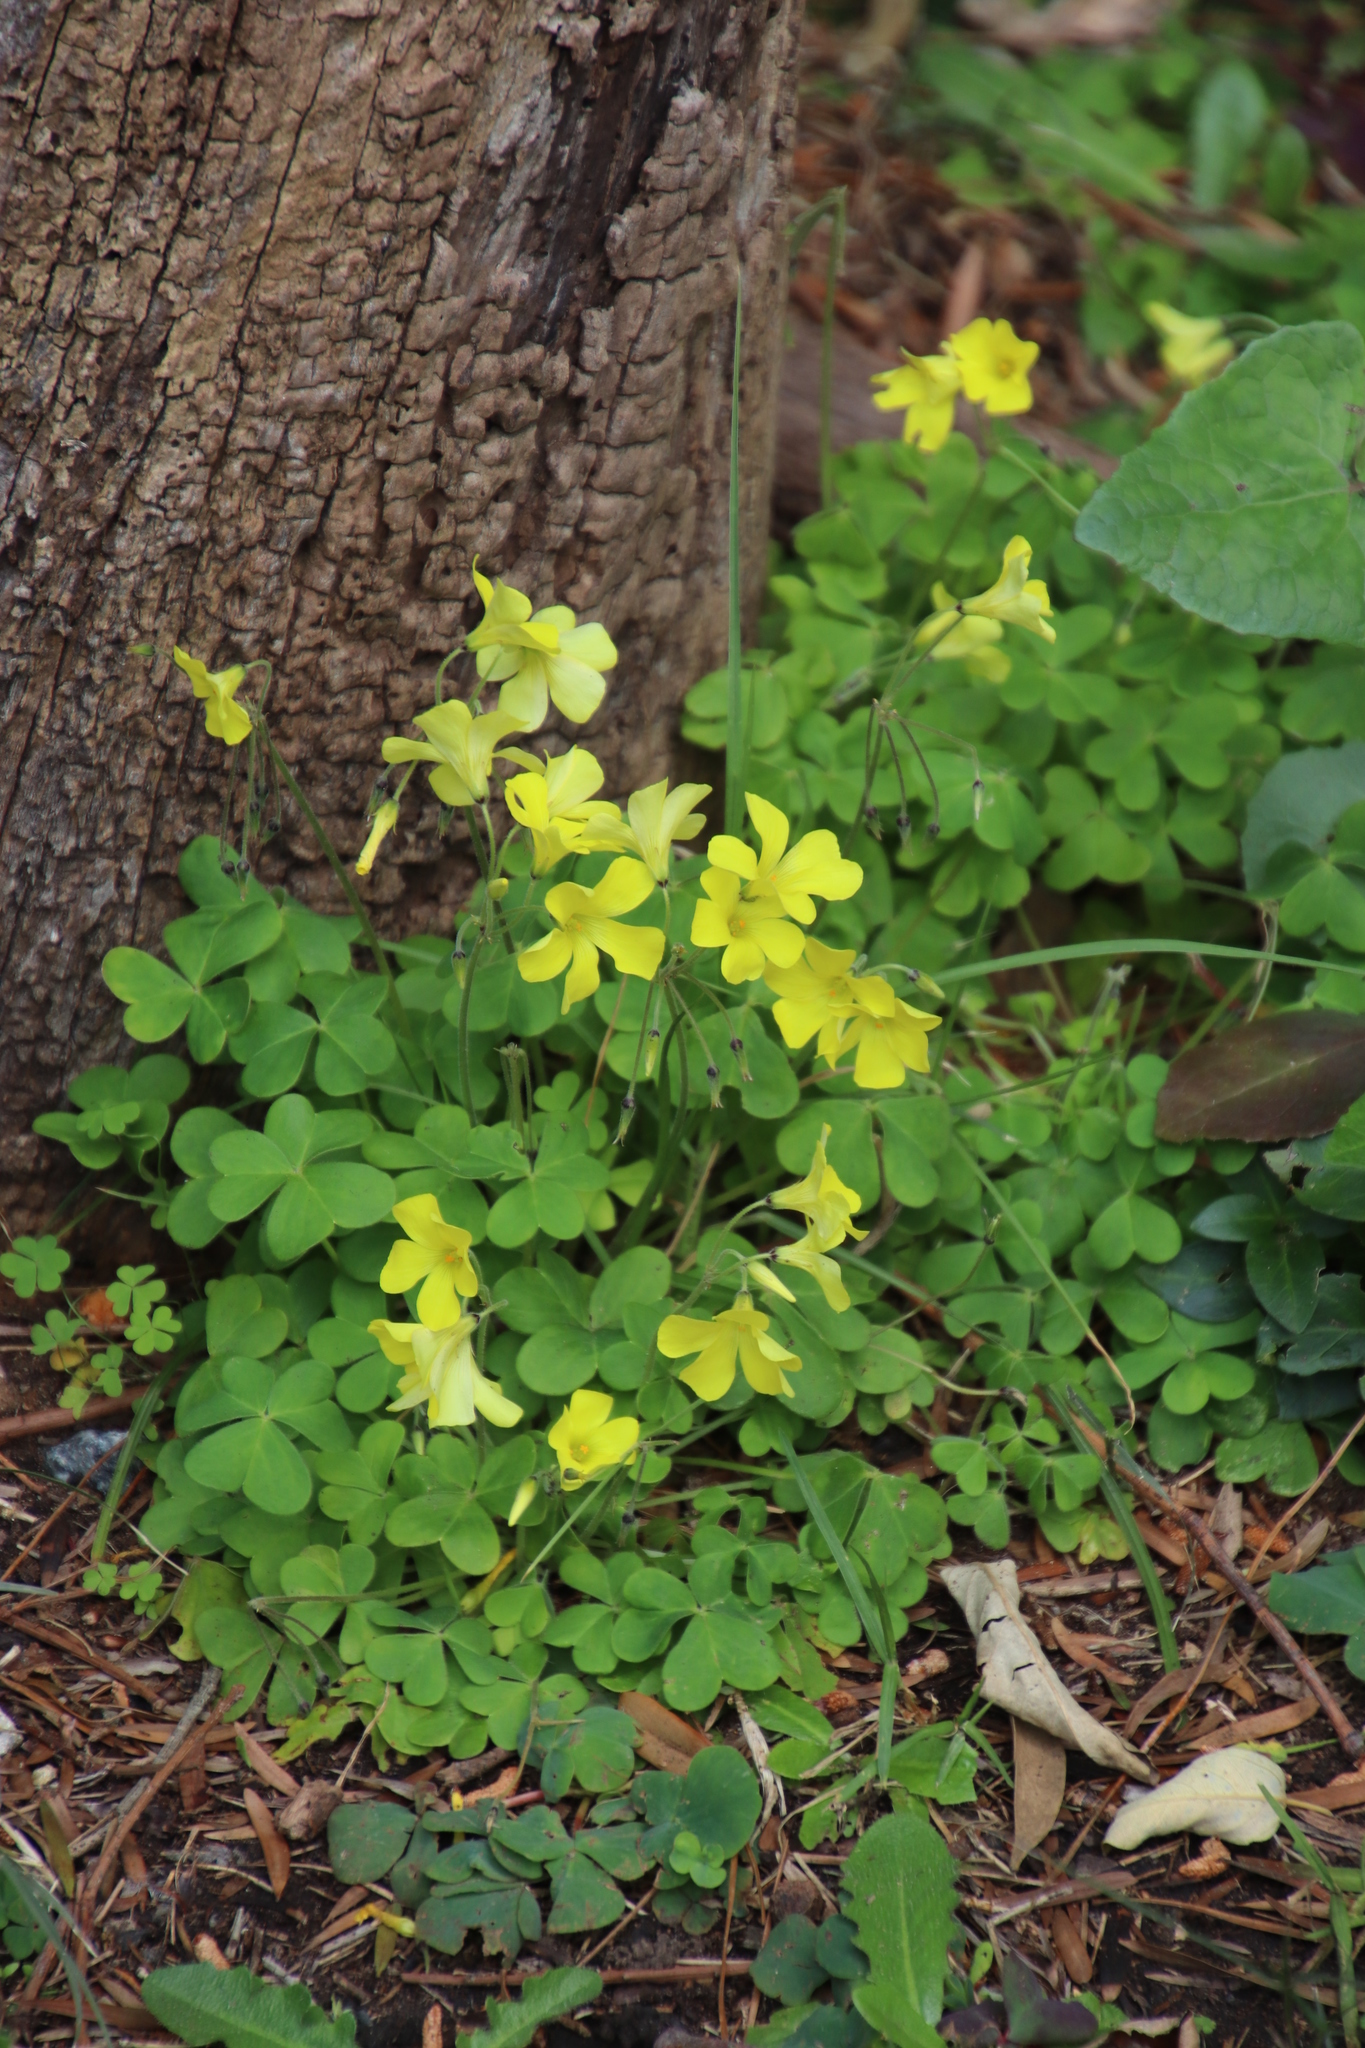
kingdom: Plantae
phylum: Tracheophyta
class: Magnoliopsida
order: Oxalidales
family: Oxalidaceae
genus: Oxalis
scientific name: Oxalis pes-caprae
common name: Bermuda-buttercup
